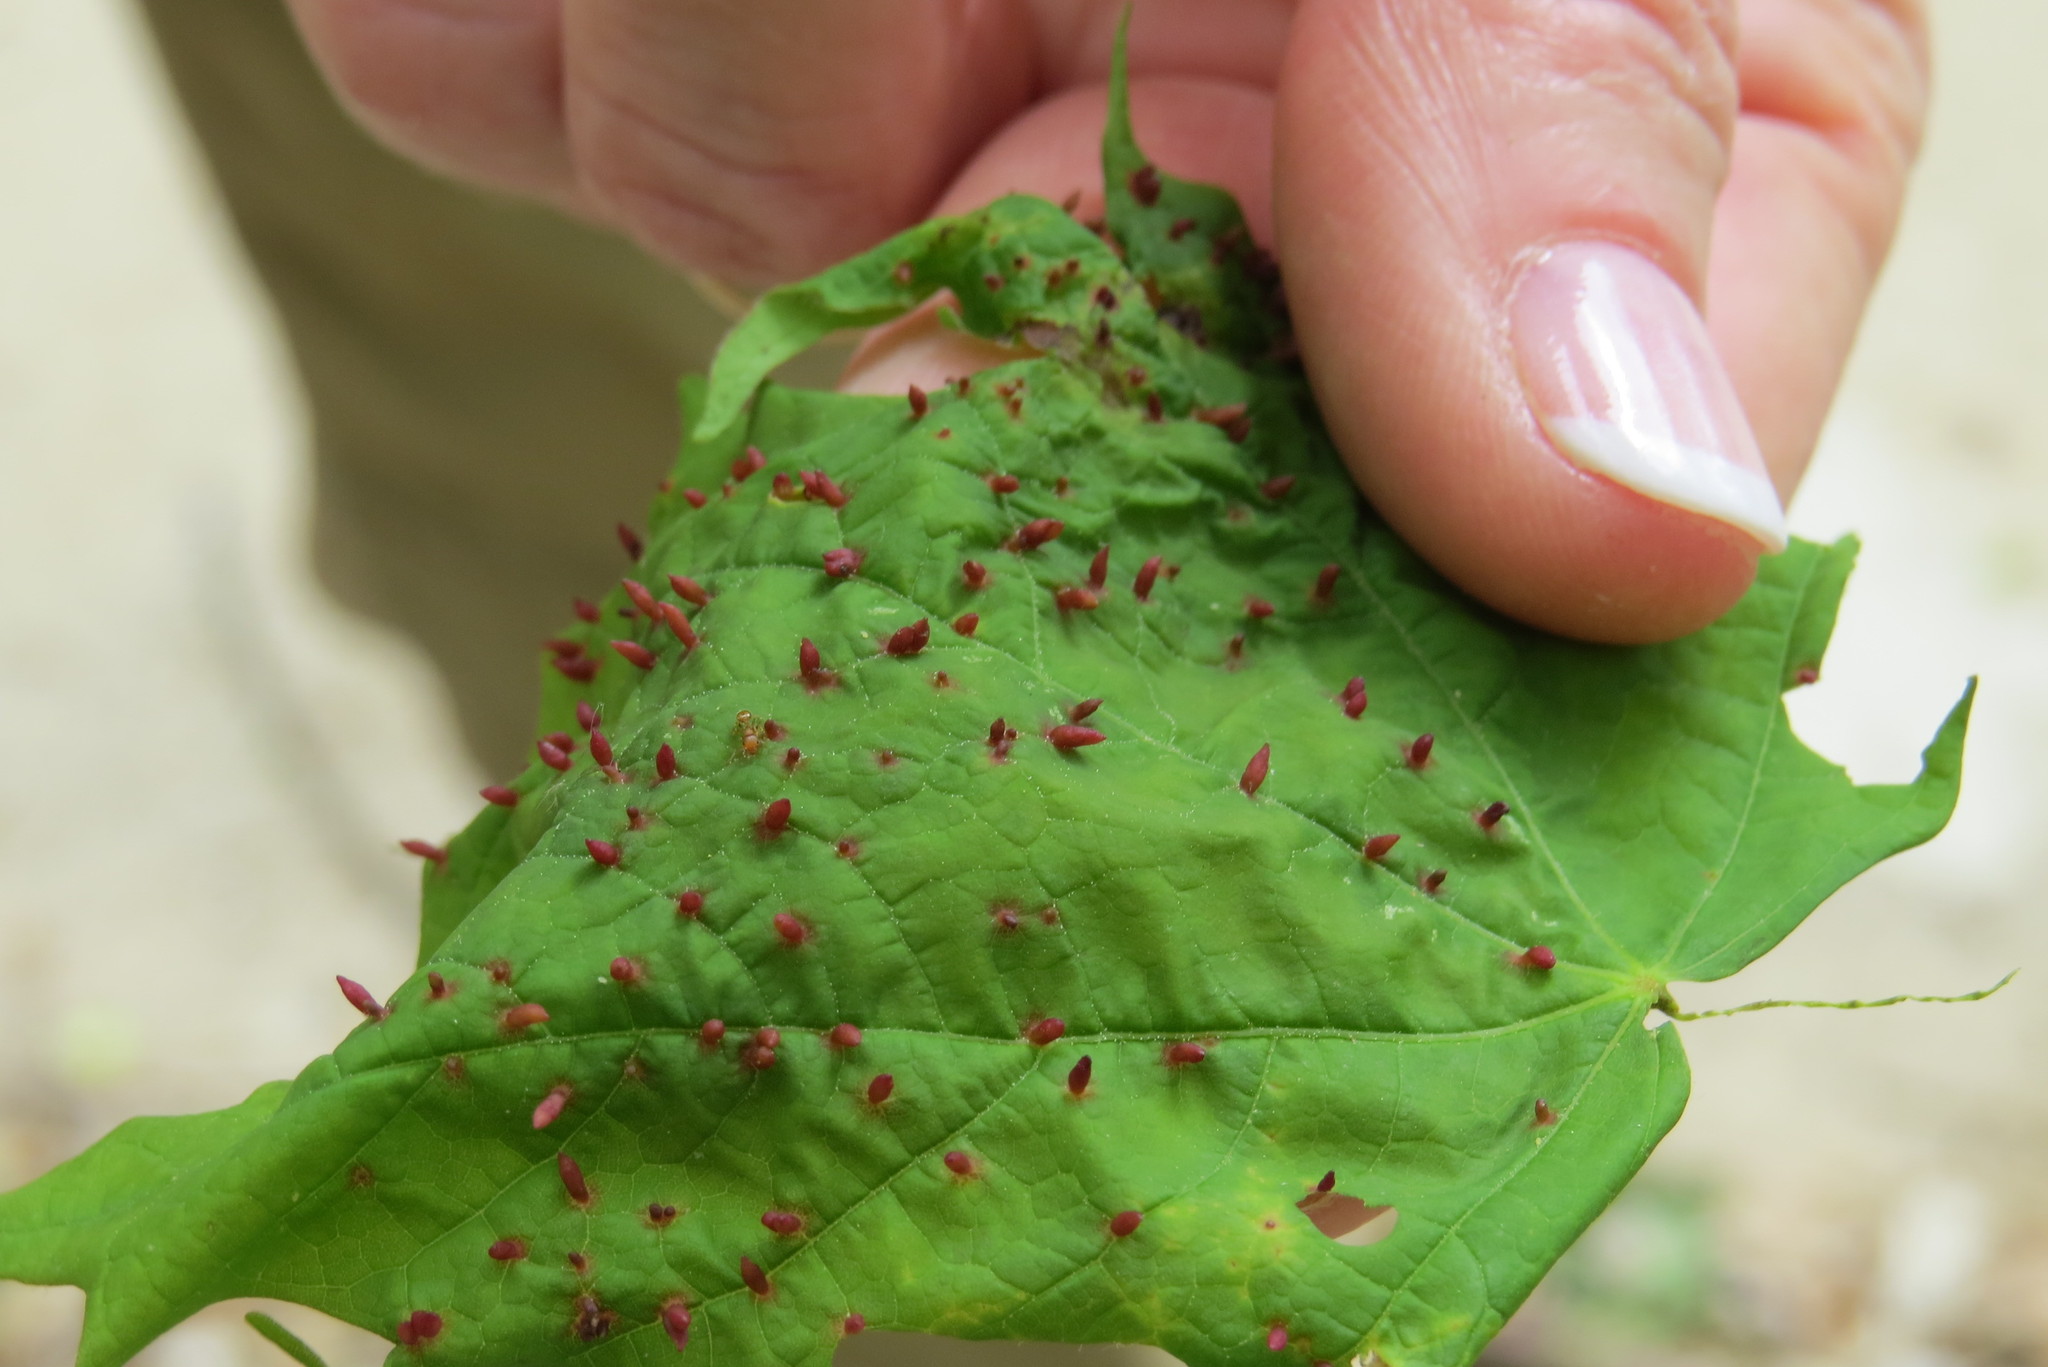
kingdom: Animalia
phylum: Arthropoda
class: Arachnida
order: Trombidiformes
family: Eriophyidae
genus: Vasates
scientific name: Vasates aceriscrumena
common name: Maple spindle gall mite
